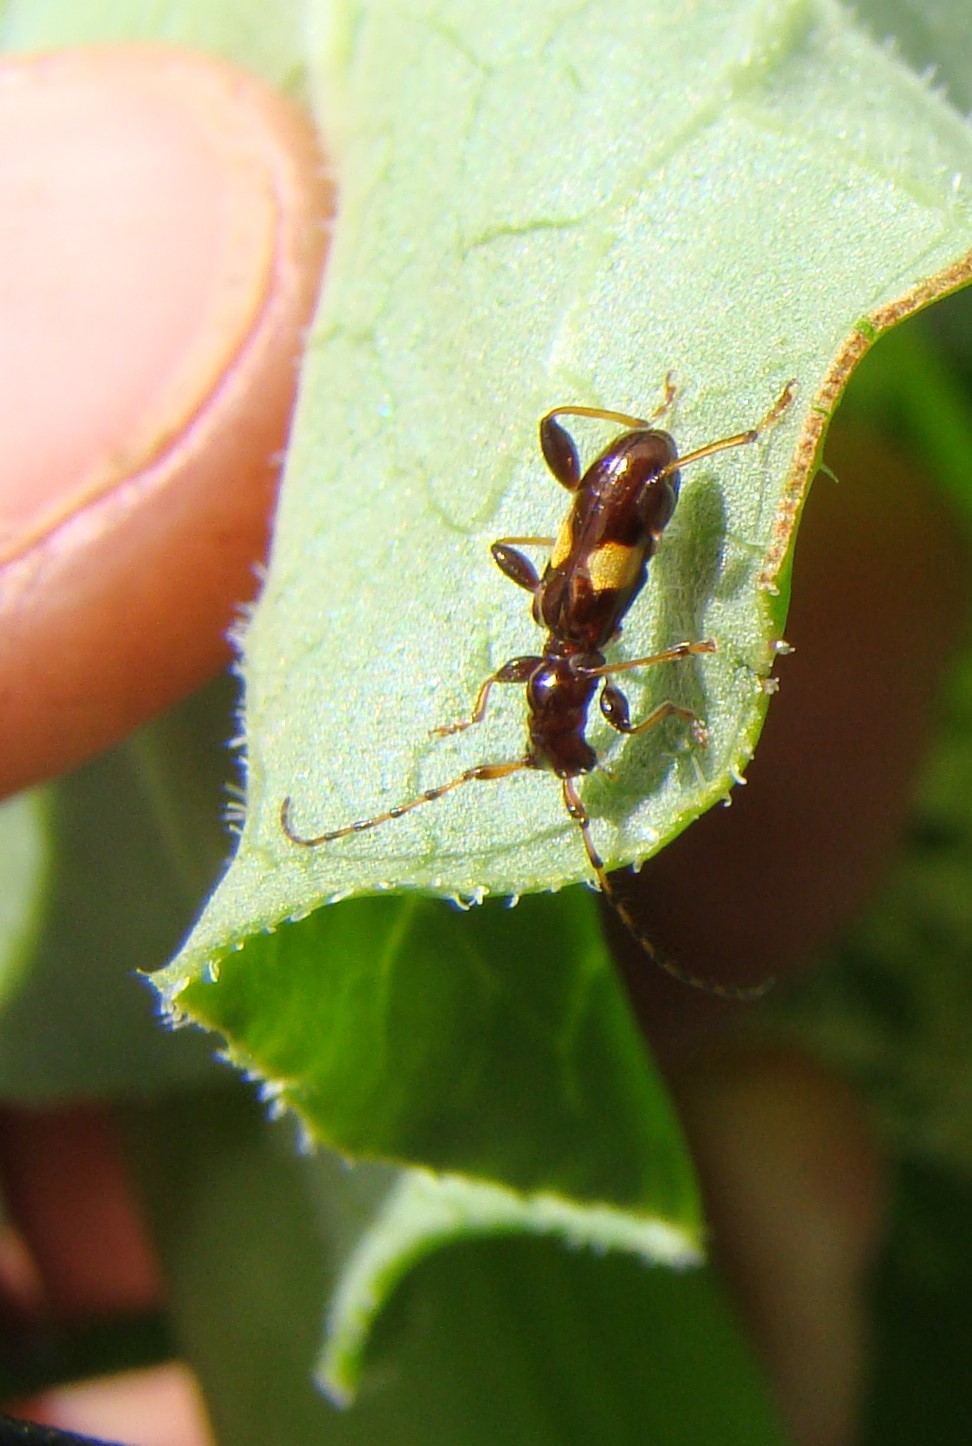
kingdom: Animalia
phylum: Arthropoda
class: Insecta
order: Coleoptera
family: Cerambycidae
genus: Zorion
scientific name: Zorion guttigerum
